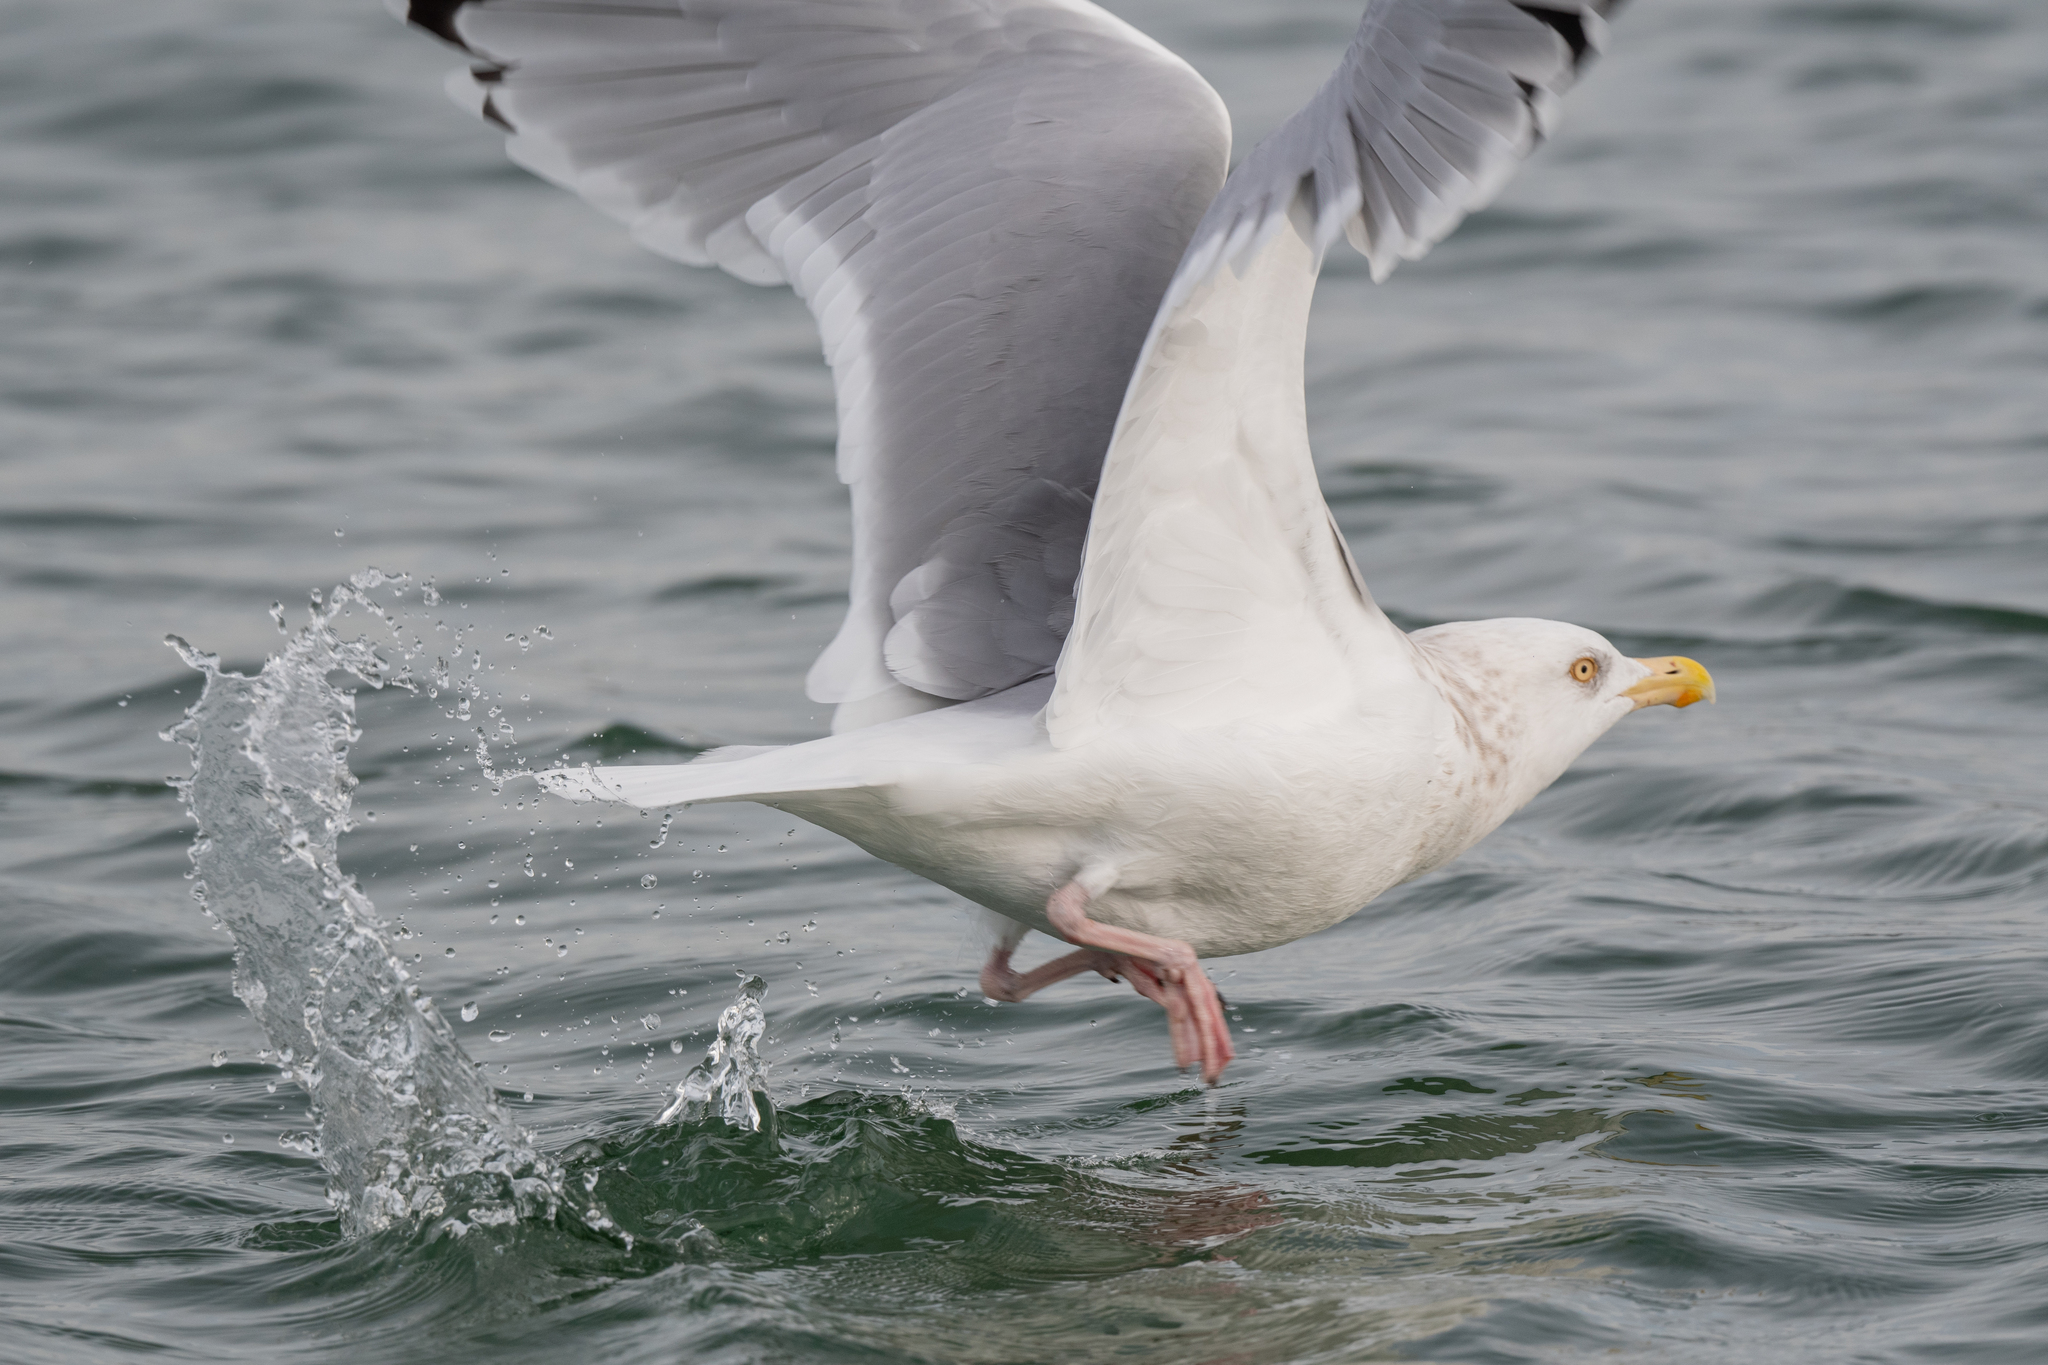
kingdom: Animalia
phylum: Chordata
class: Aves
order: Charadriiformes
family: Laridae
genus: Larus
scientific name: Larus argentatus
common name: Herring gull
